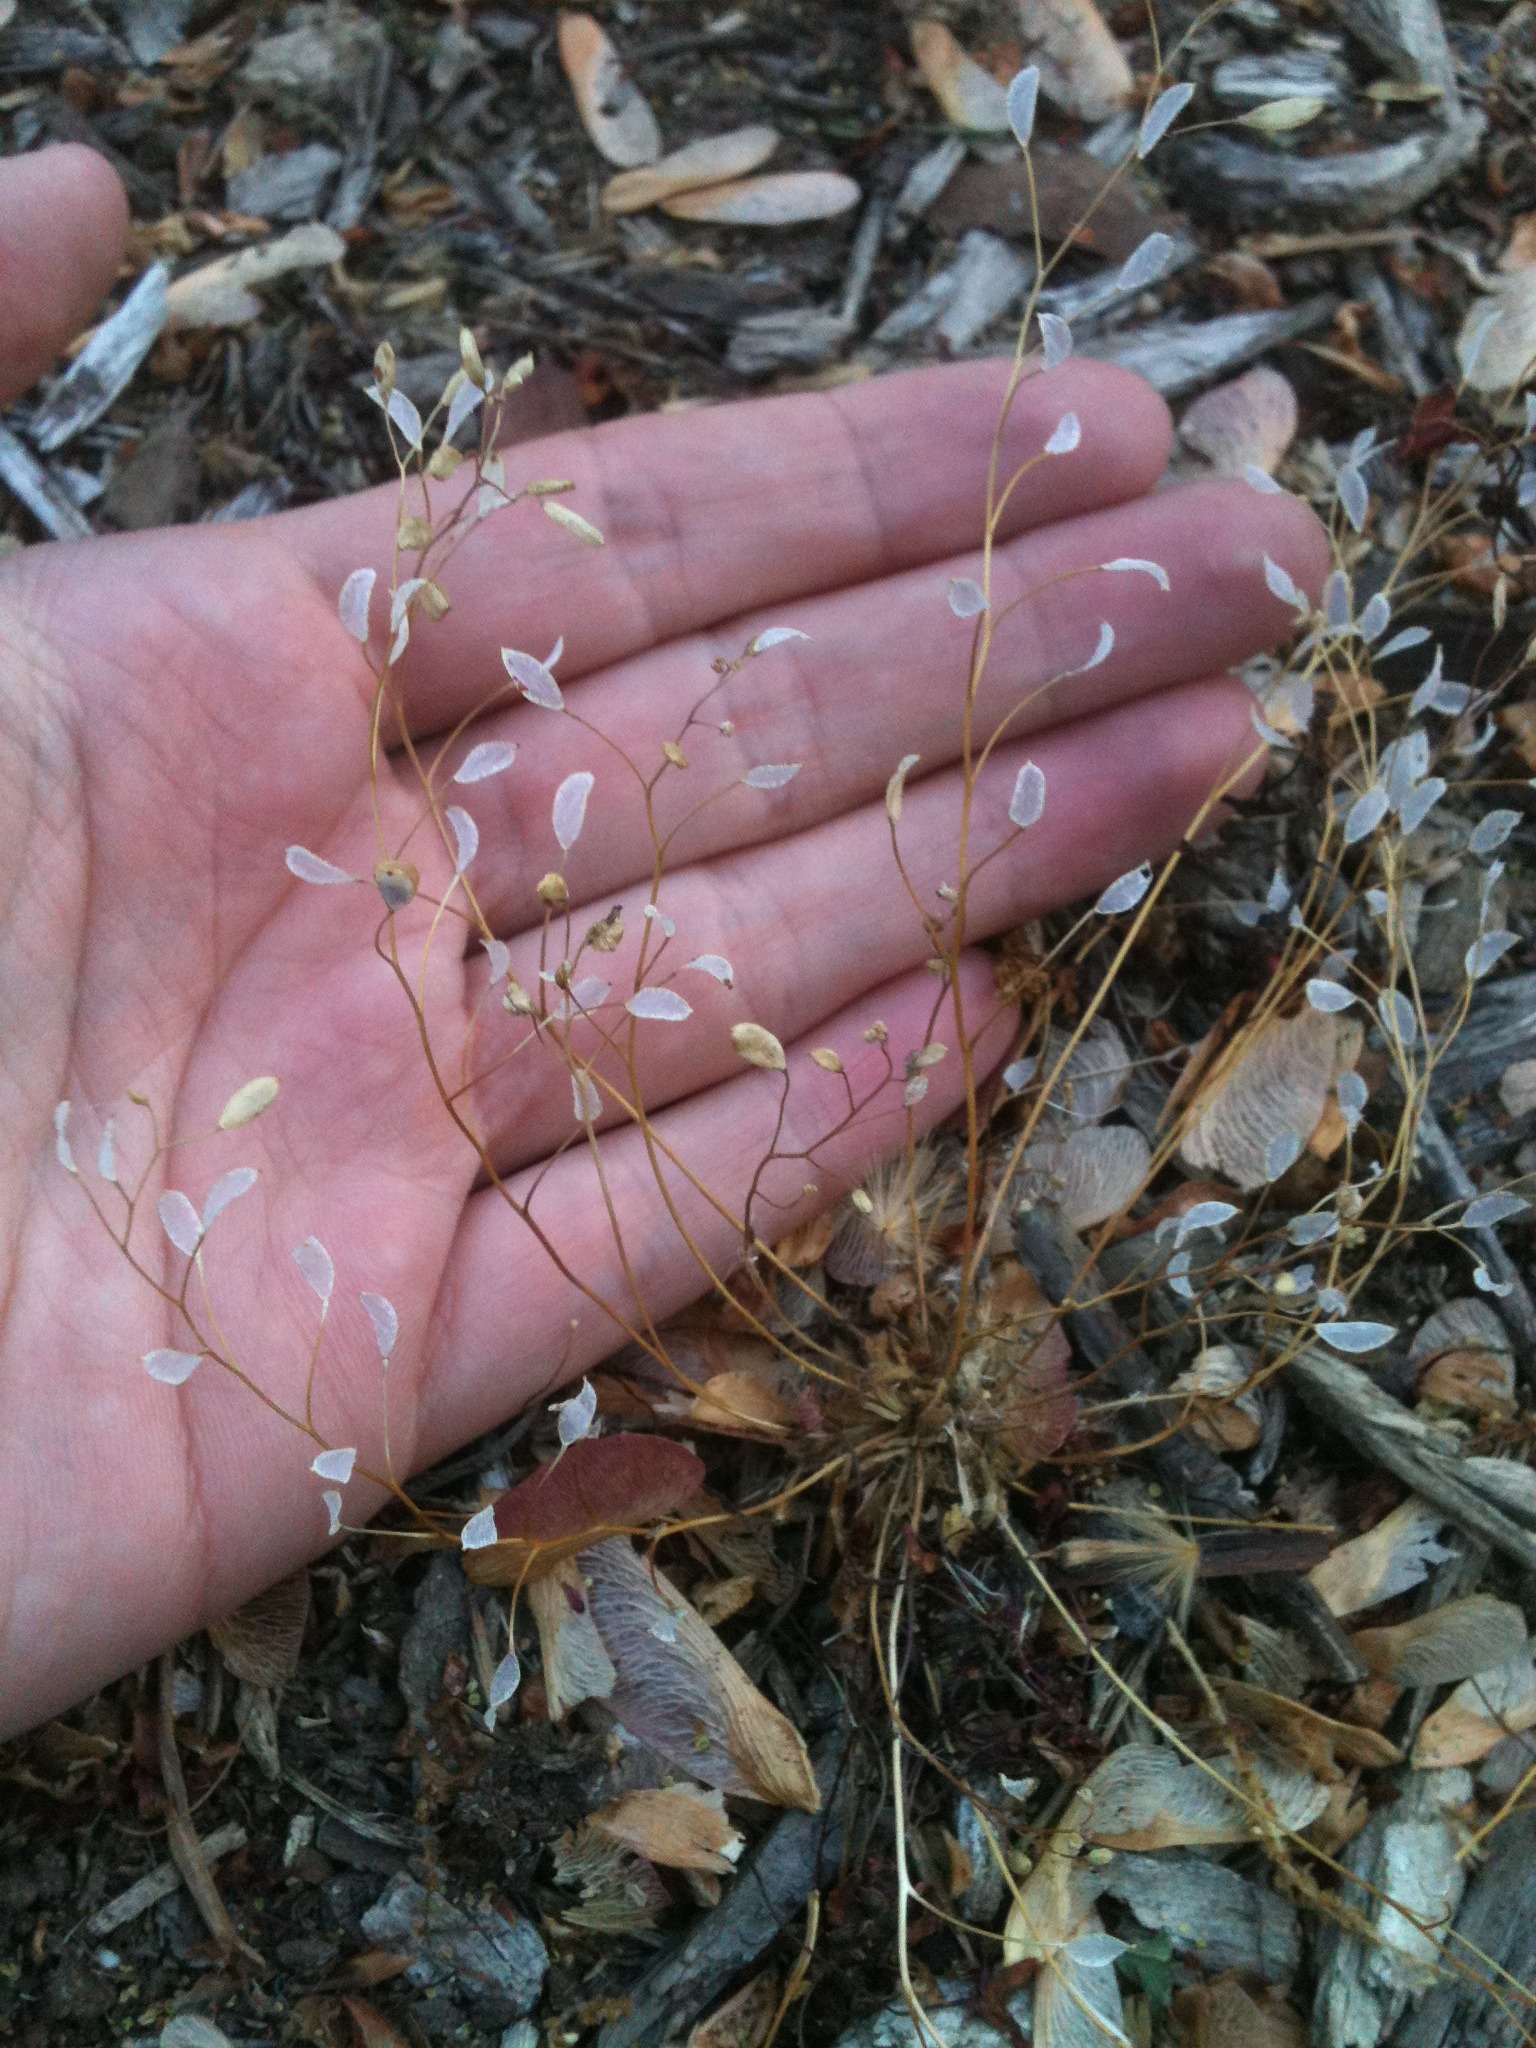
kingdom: Plantae
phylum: Tracheophyta
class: Magnoliopsida
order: Brassicales
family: Brassicaceae
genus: Draba
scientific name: Draba verna
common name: Spring draba
